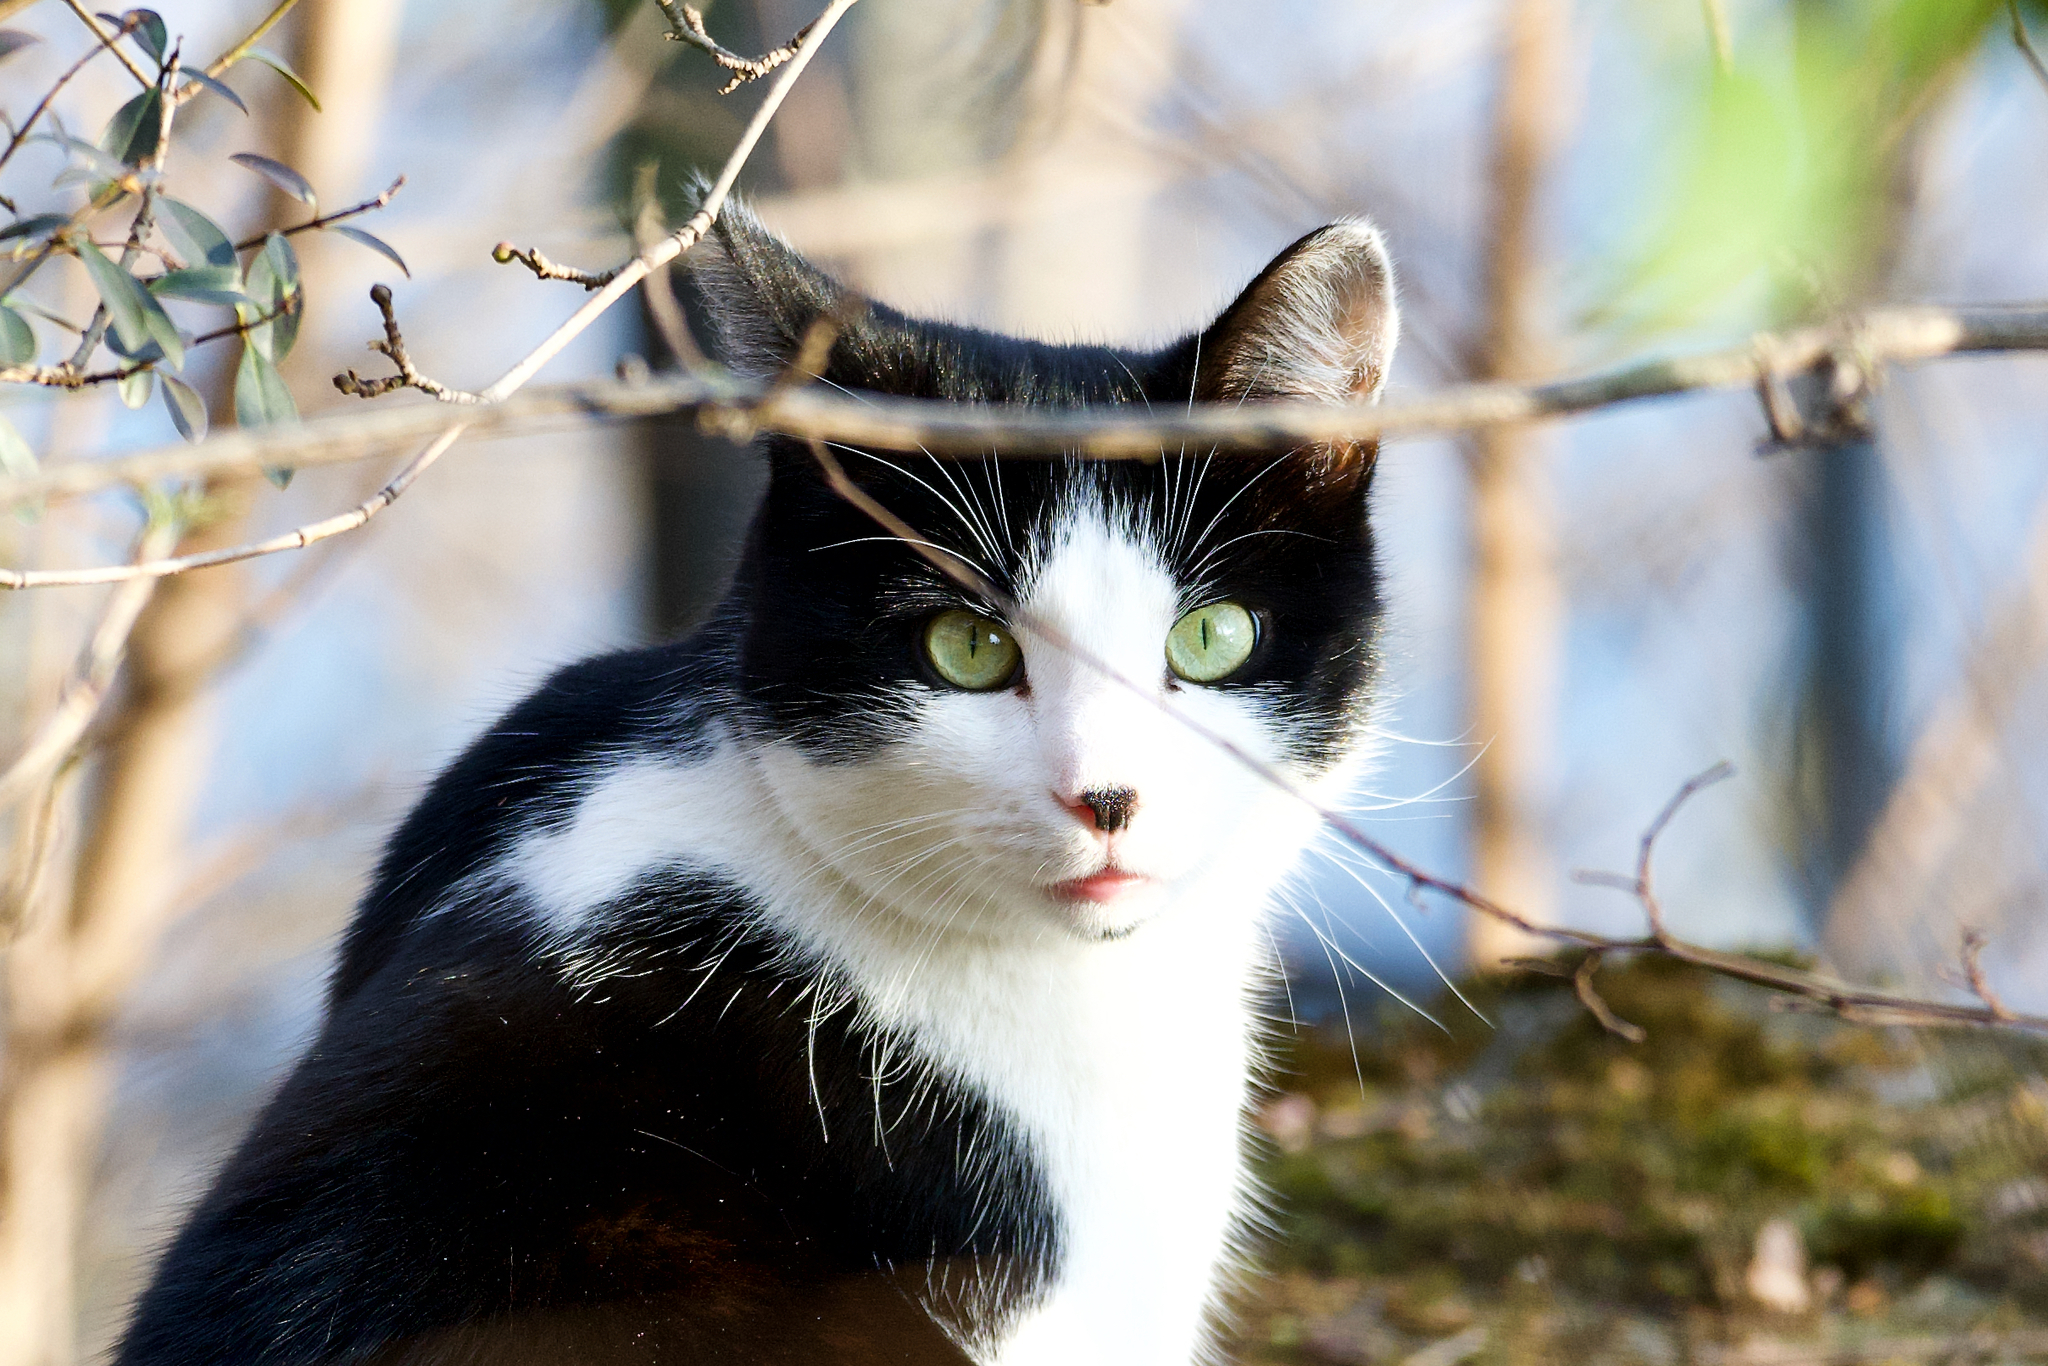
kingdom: Animalia
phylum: Chordata
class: Mammalia
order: Carnivora
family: Felidae
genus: Felis
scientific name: Felis catus
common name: Domestic cat
